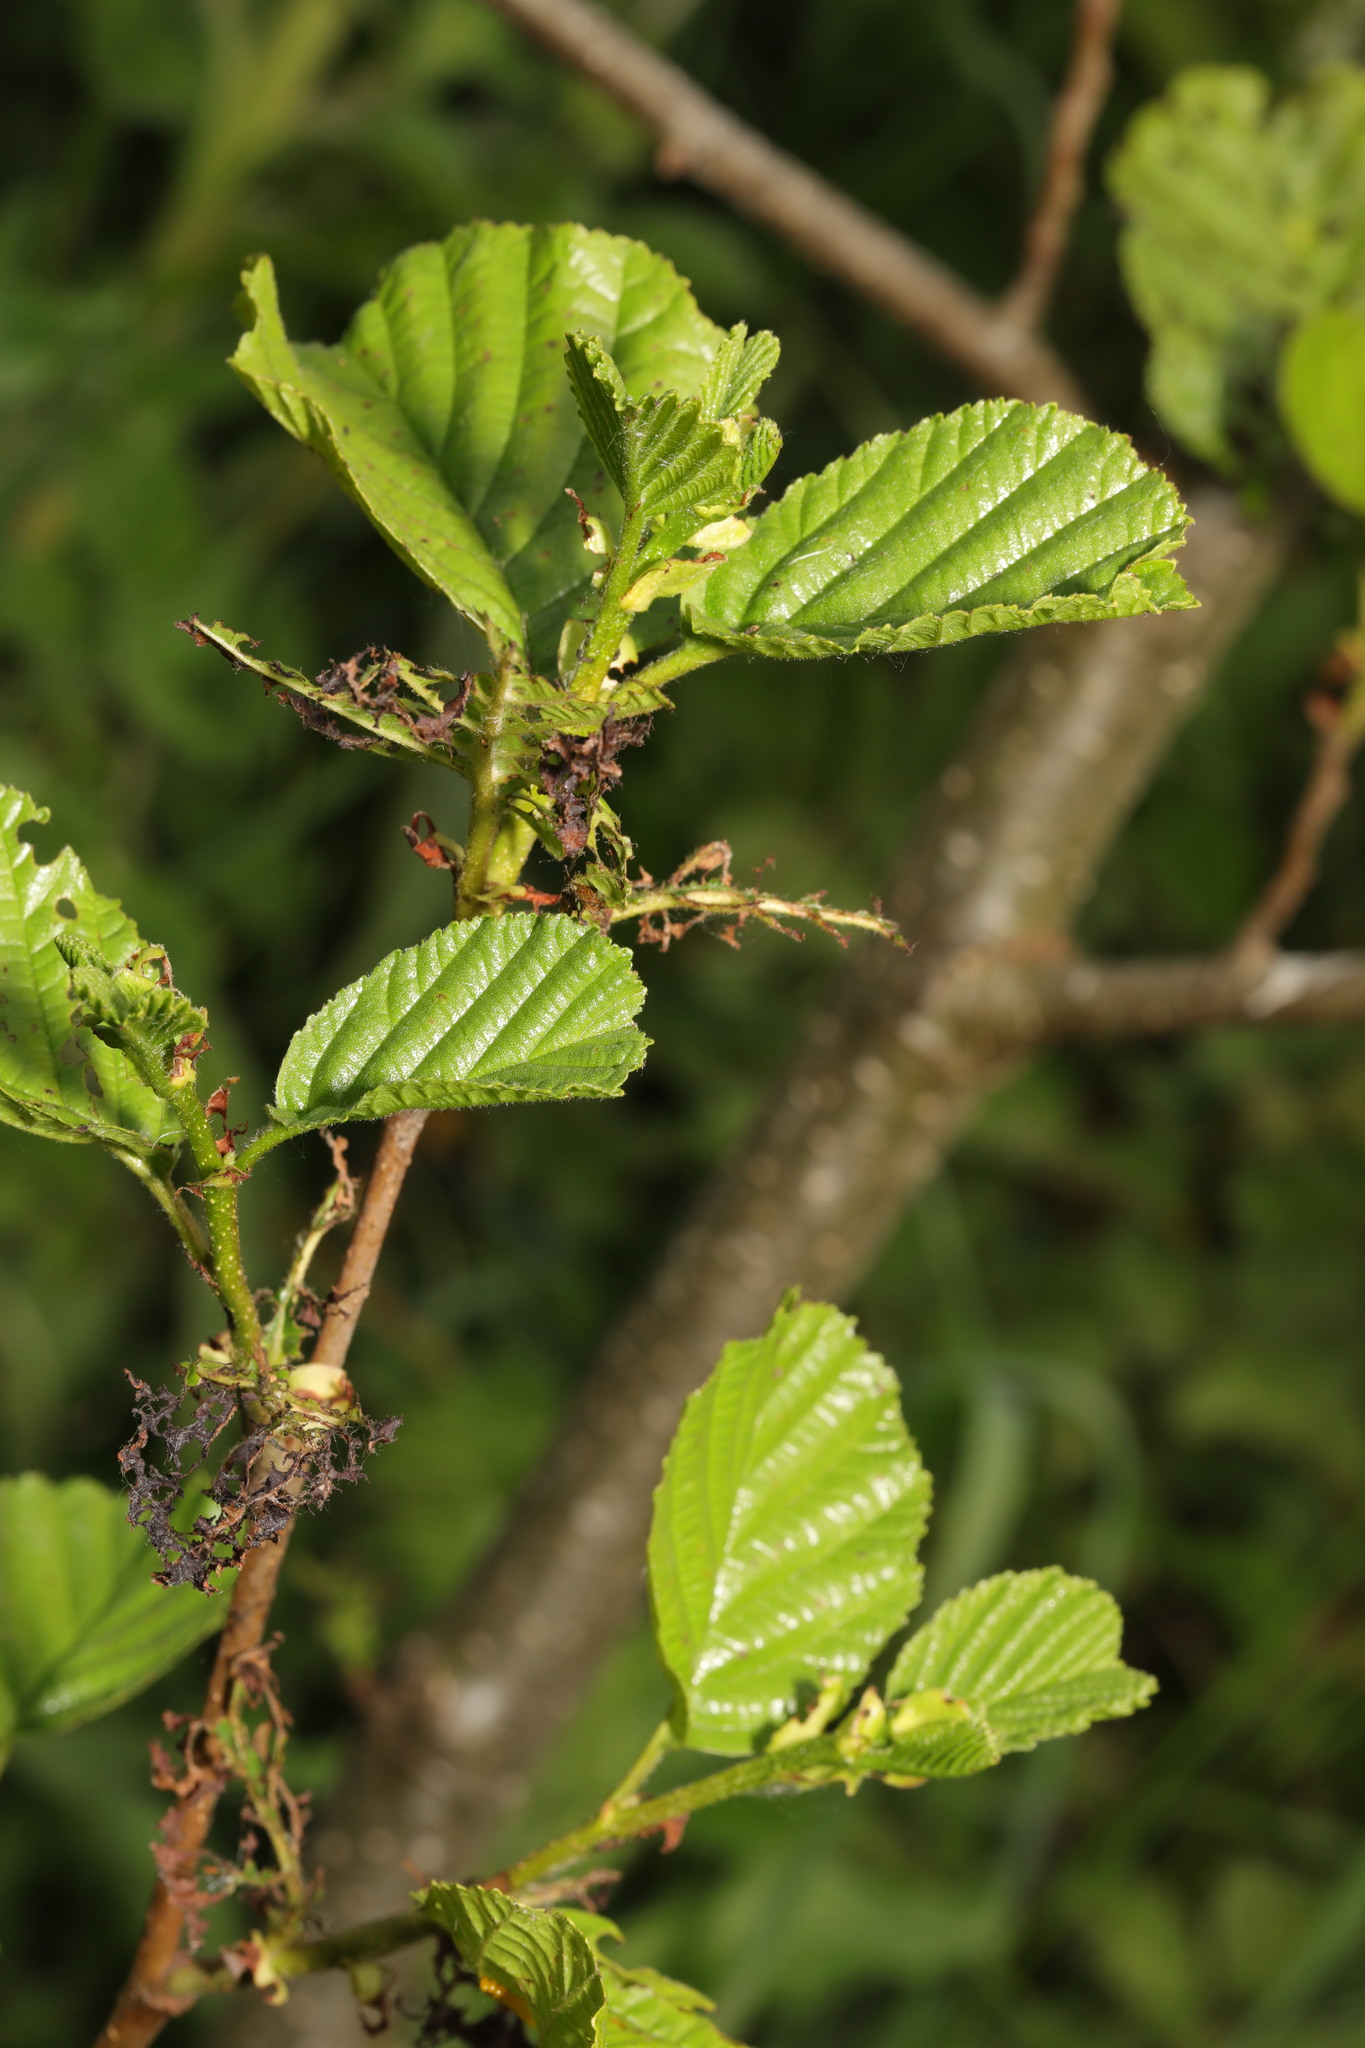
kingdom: Plantae
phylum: Tracheophyta
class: Magnoliopsida
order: Fagales
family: Betulaceae
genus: Alnus
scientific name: Alnus glutinosa
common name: Black alder
